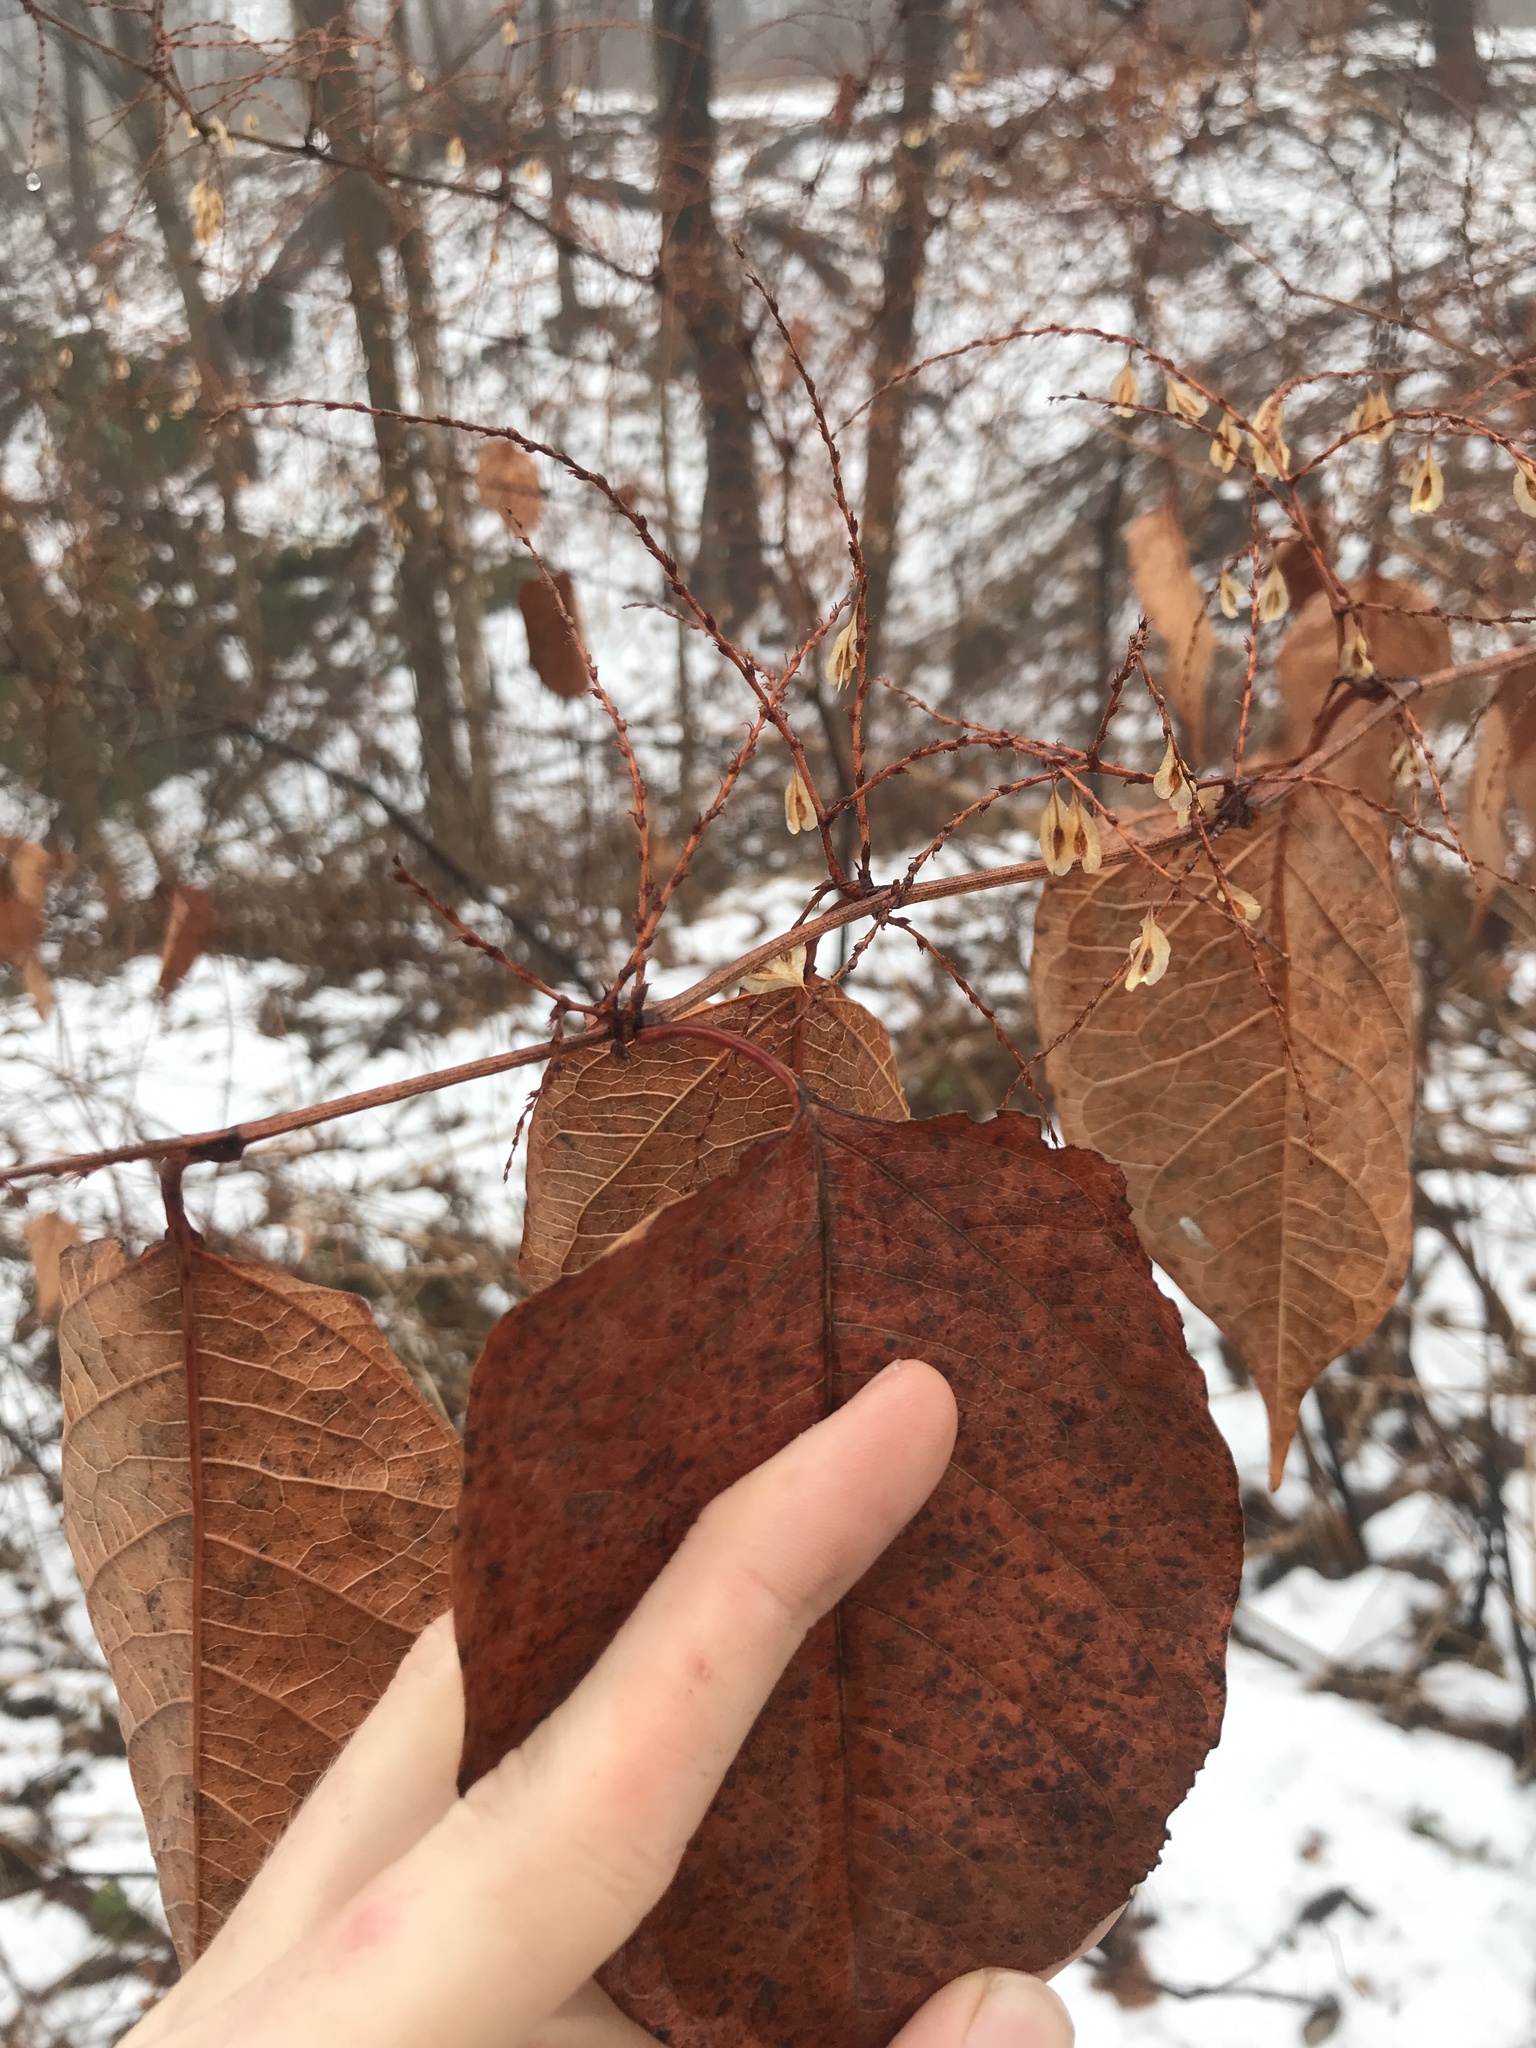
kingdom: Plantae
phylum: Tracheophyta
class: Magnoliopsida
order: Caryophyllales
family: Polygonaceae
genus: Reynoutria
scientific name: Reynoutria japonica
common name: Japanese knotweed
